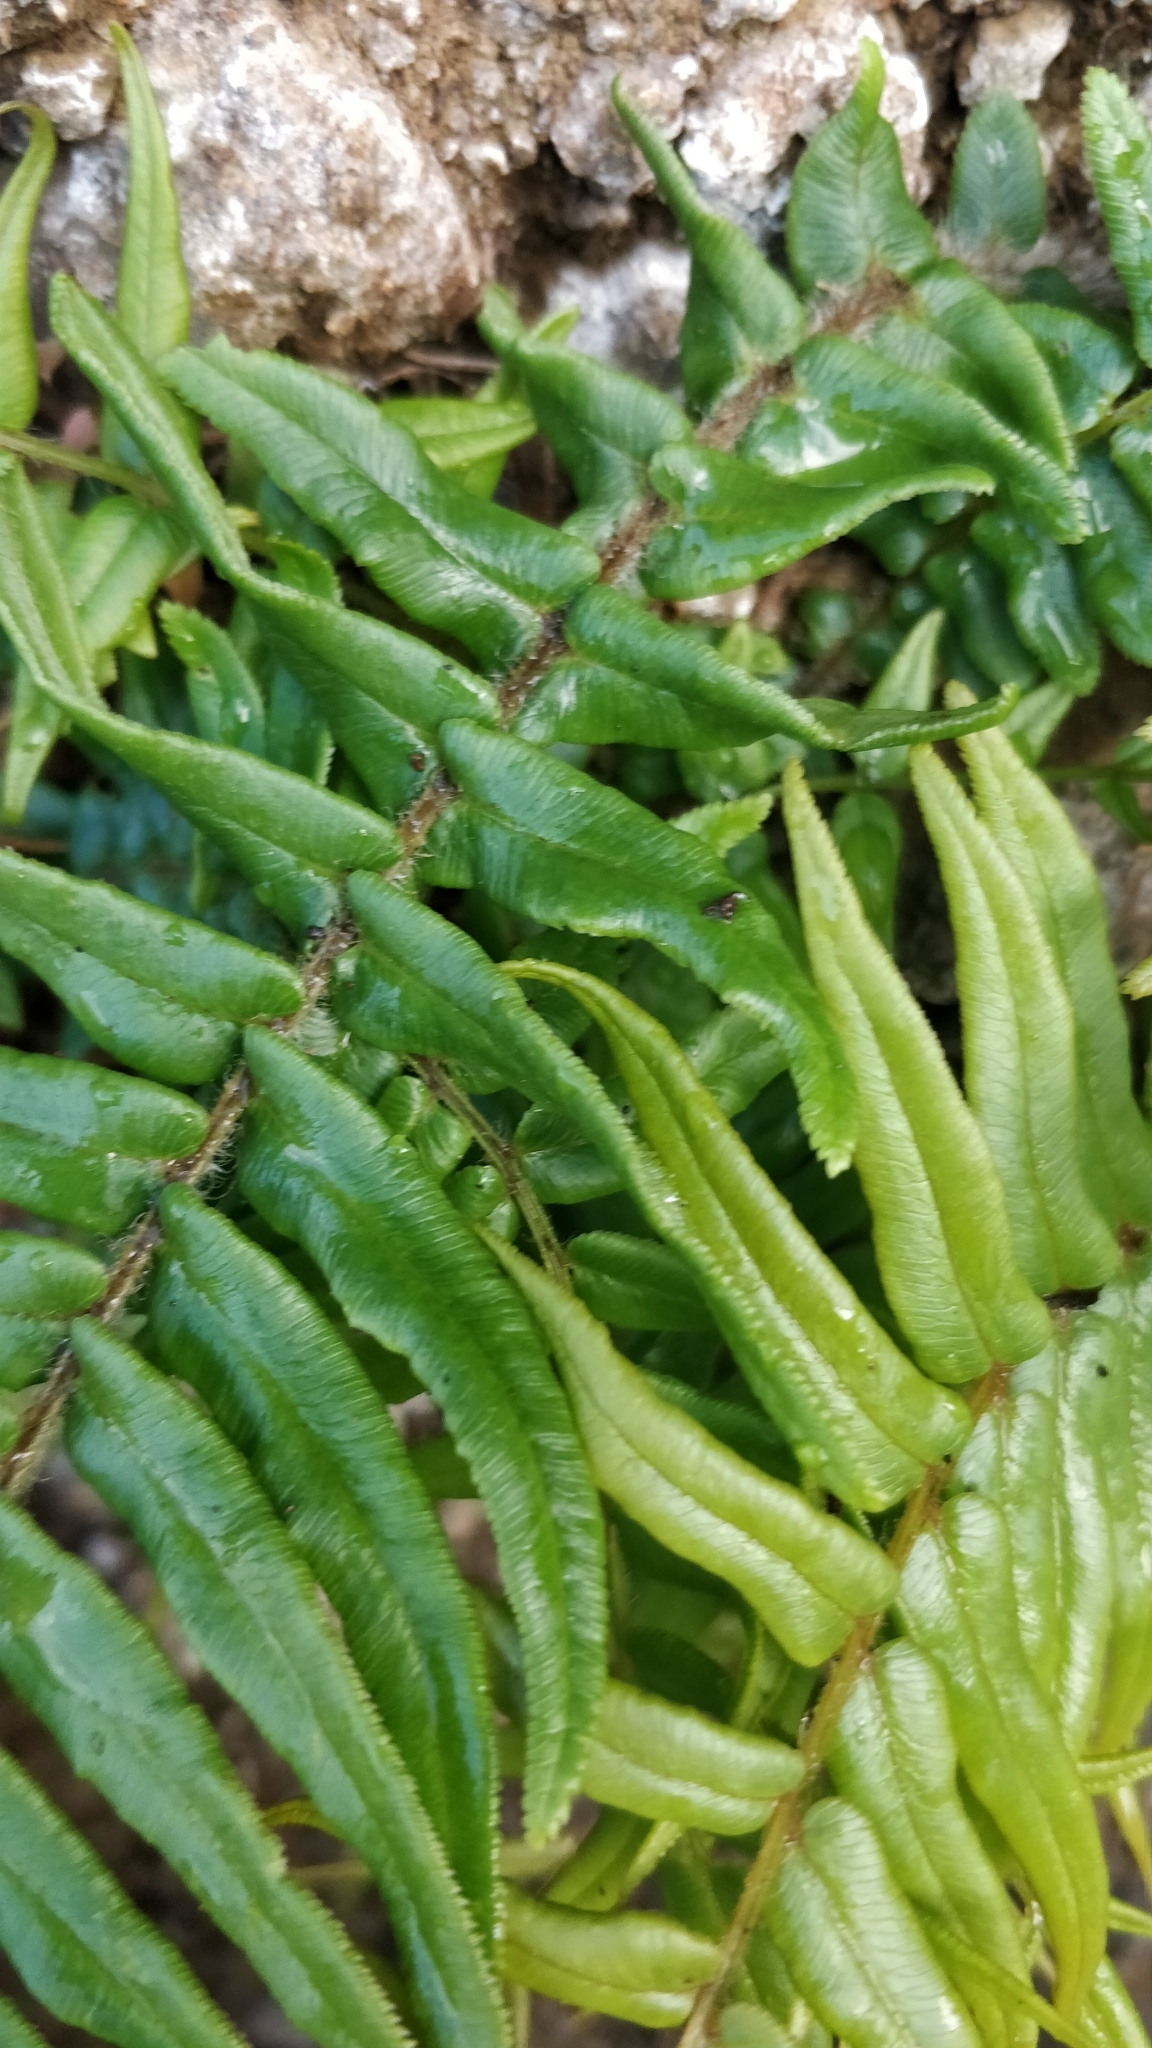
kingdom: Plantae
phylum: Tracheophyta
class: Polypodiopsida
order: Polypodiales
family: Pteridaceae
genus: Pteris
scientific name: Pteris vittata
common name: Ladder brake
